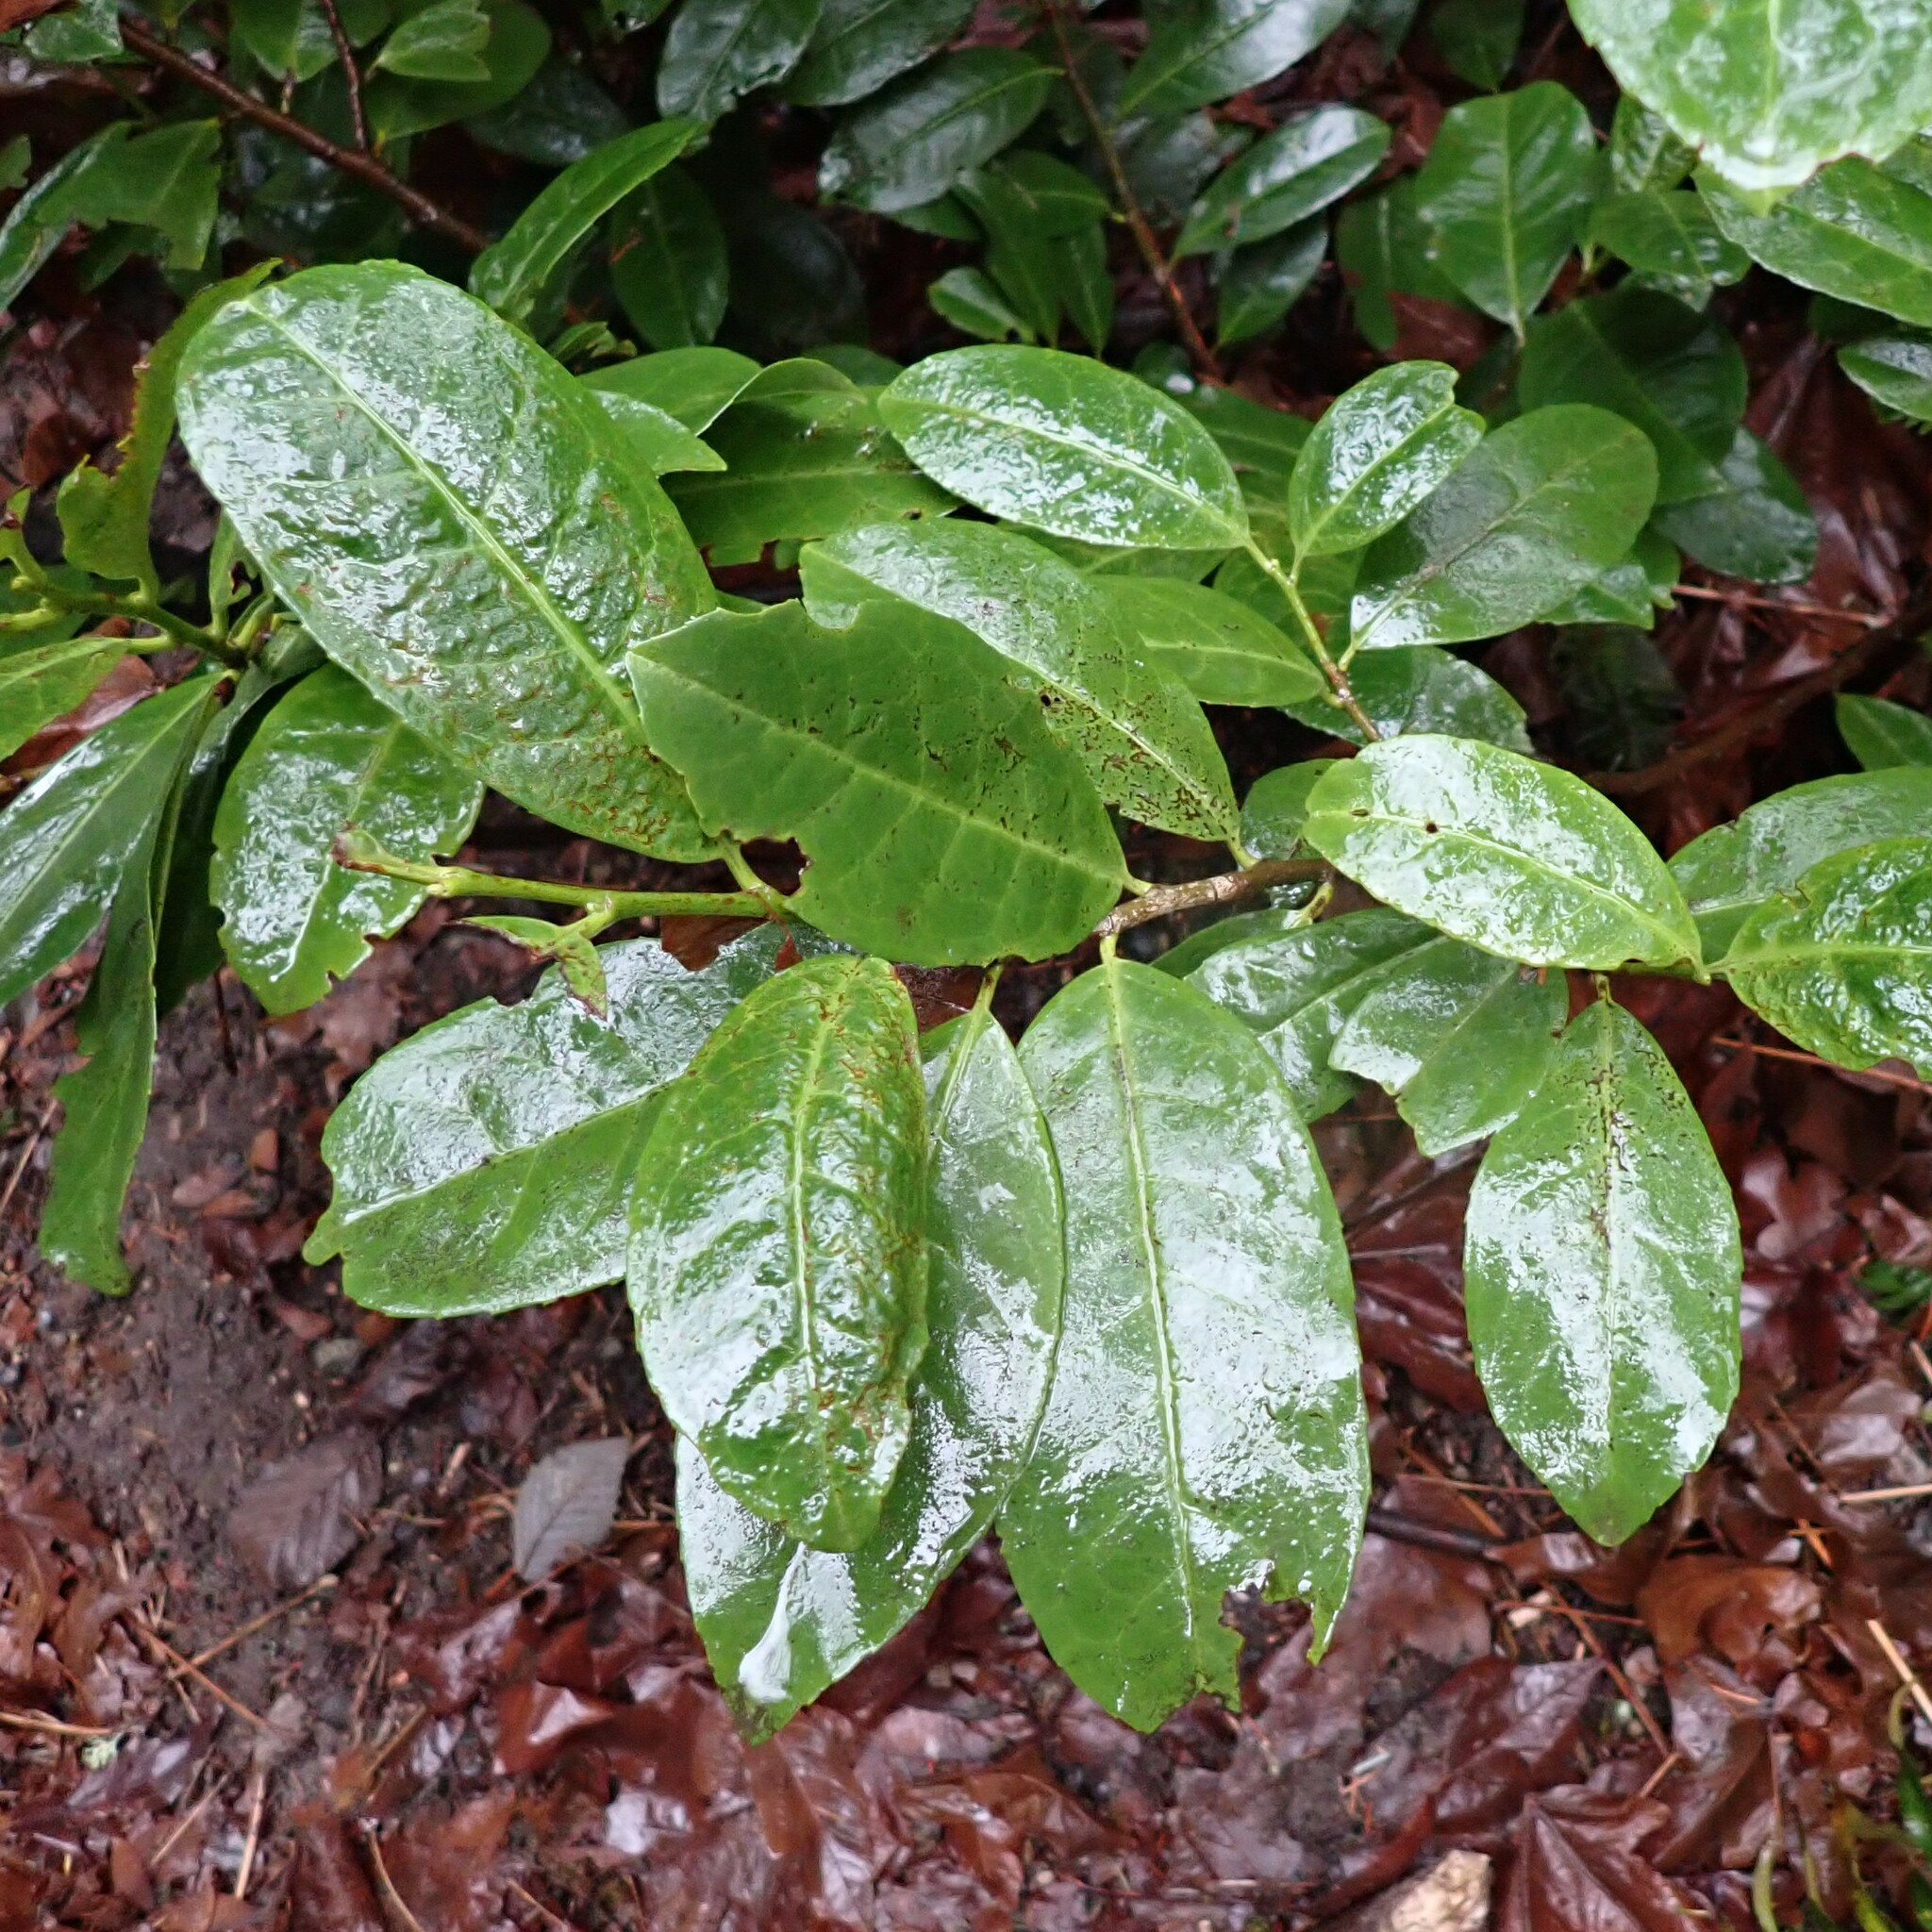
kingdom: Plantae
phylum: Tracheophyta
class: Magnoliopsida
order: Rosales
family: Rosaceae
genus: Prunus
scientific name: Prunus laurocerasus
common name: Cherry laurel
